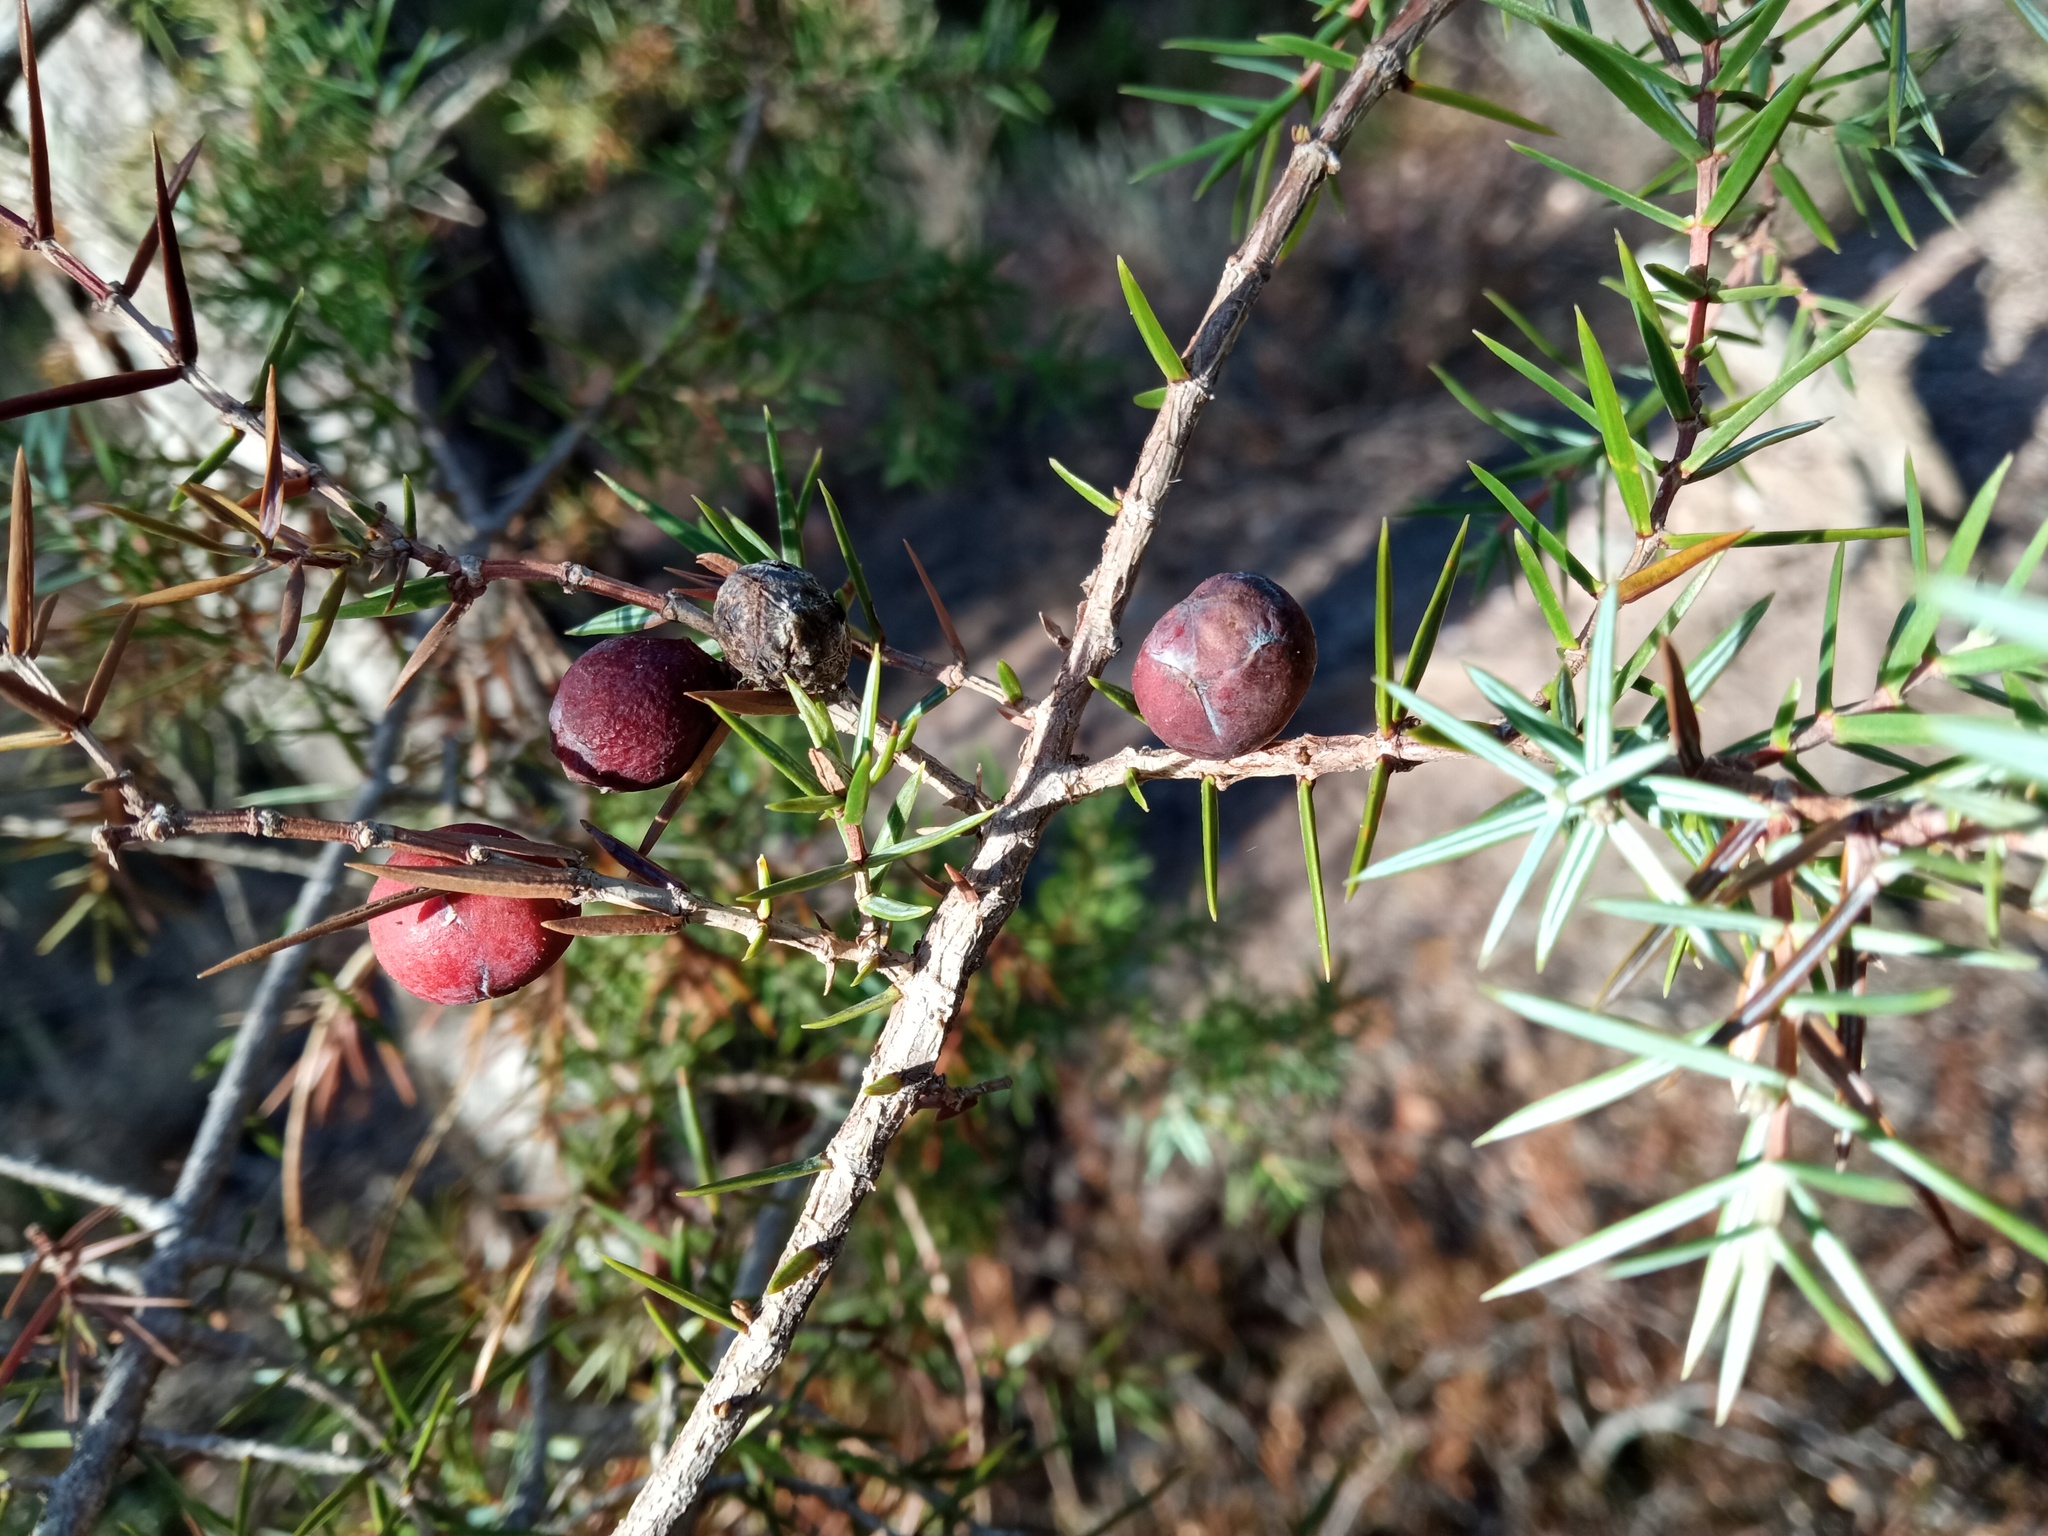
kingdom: Plantae
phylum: Tracheophyta
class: Pinopsida
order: Pinales
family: Cupressaceae
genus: Juniperus
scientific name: Juniperus oxycedrus
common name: Prickly juniper
